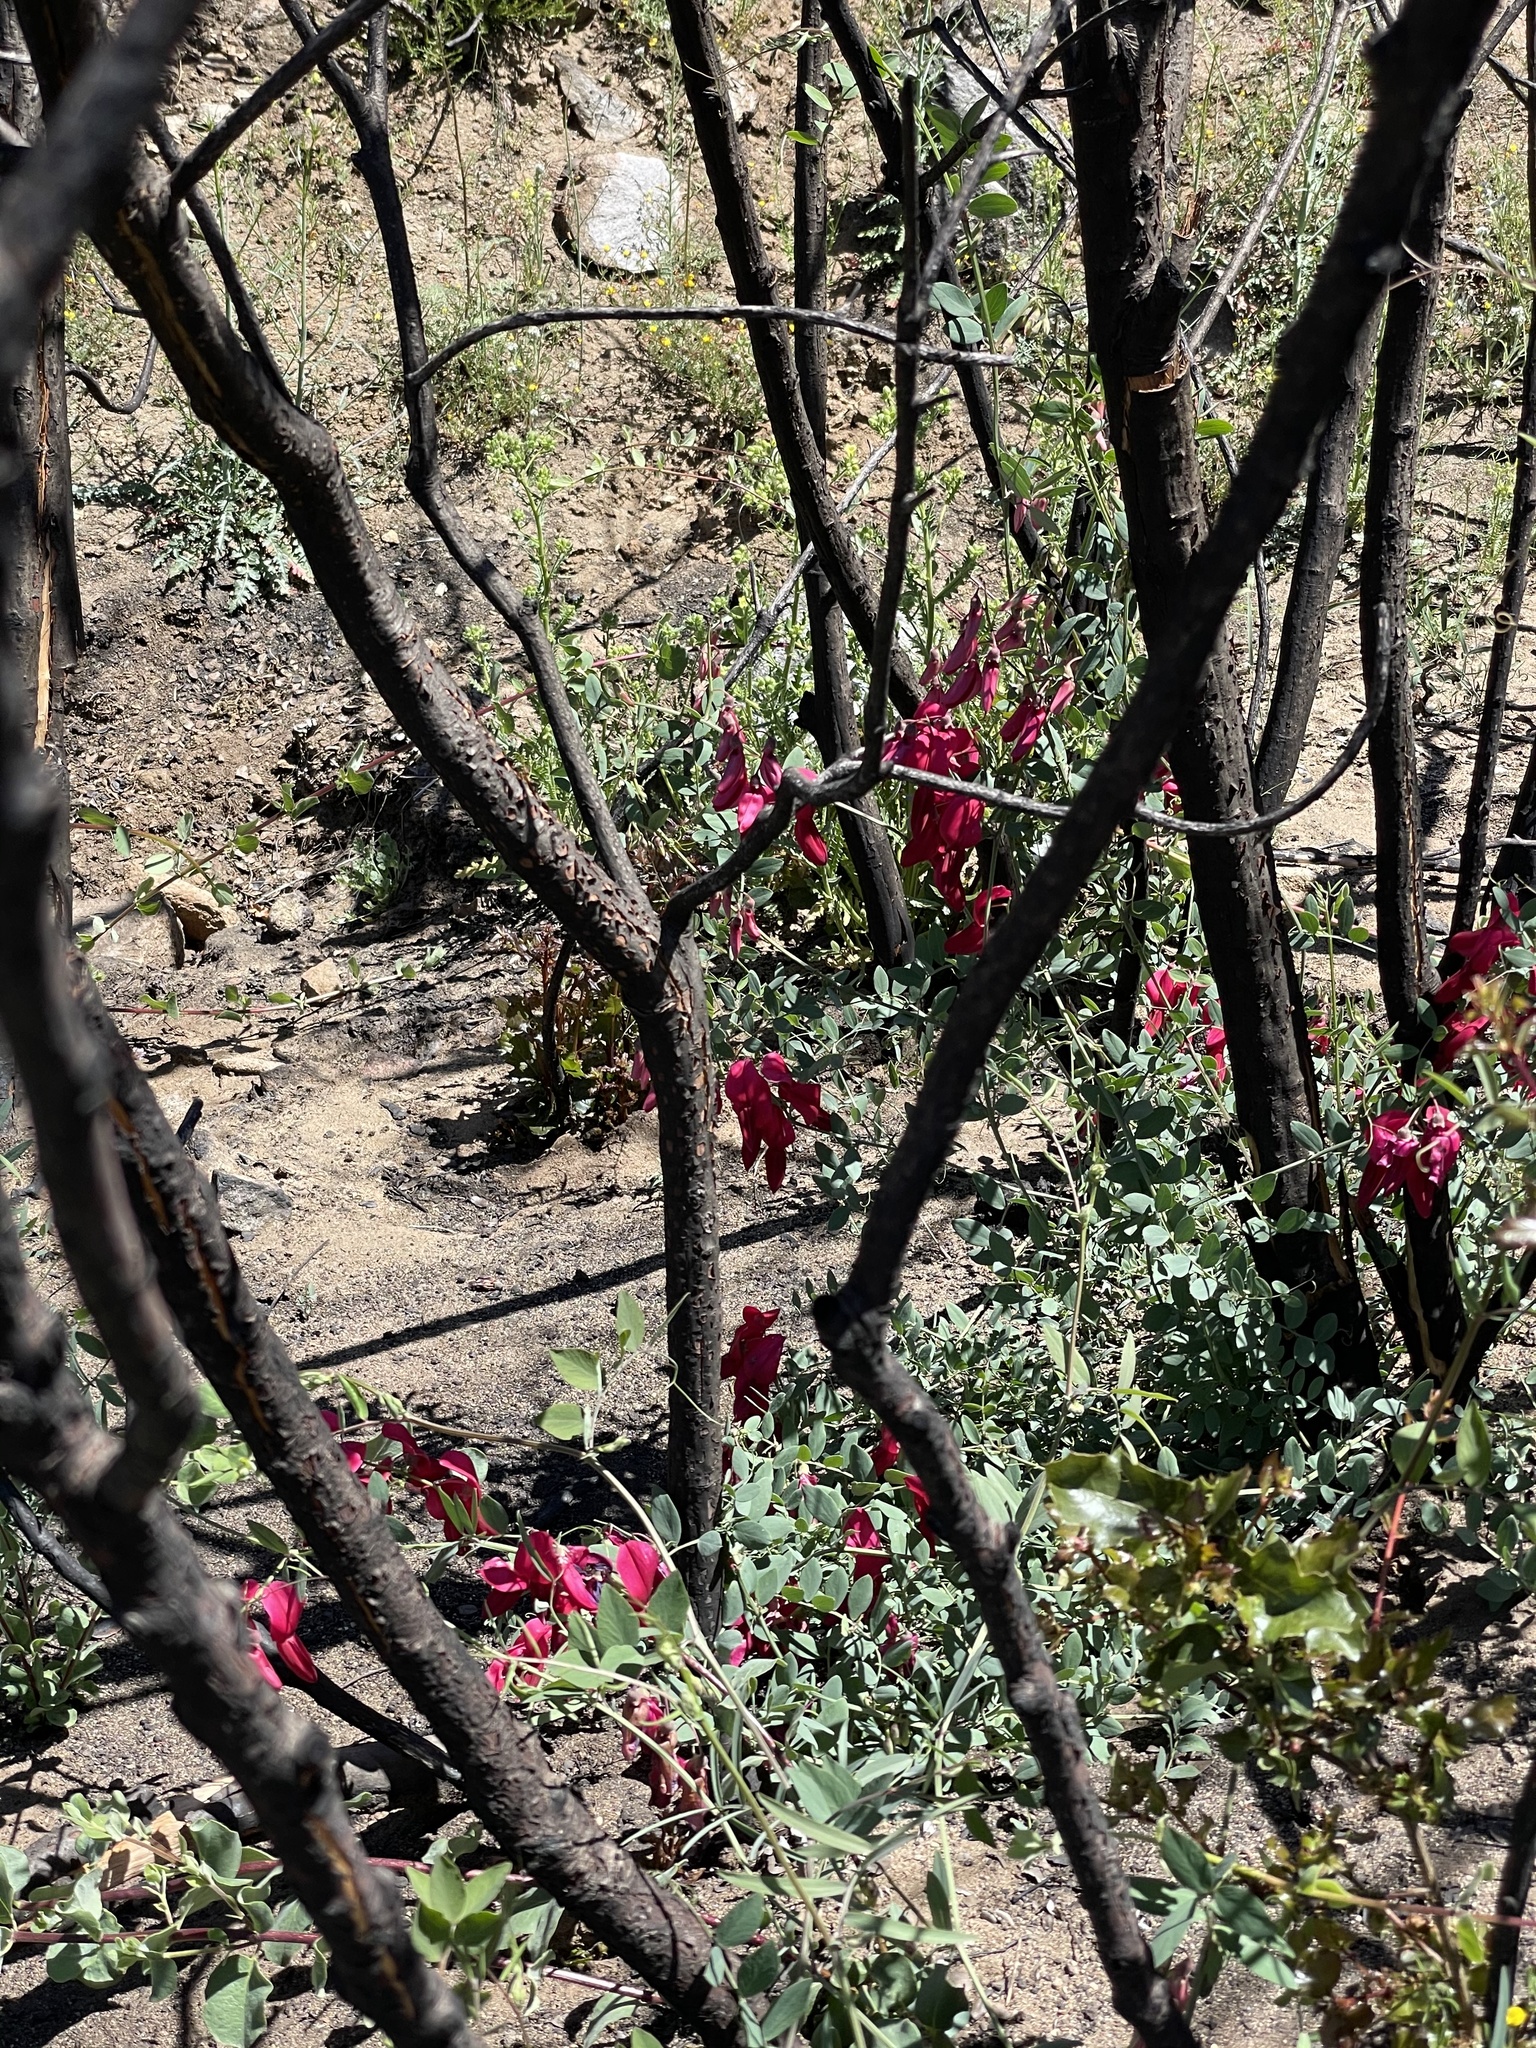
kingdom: Plantae
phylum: Tracheophyta
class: Magnoliopsida
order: Fabales
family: Fabaceae
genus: Lathyrus
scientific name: Lathyrus splendens
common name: Campo-pea
